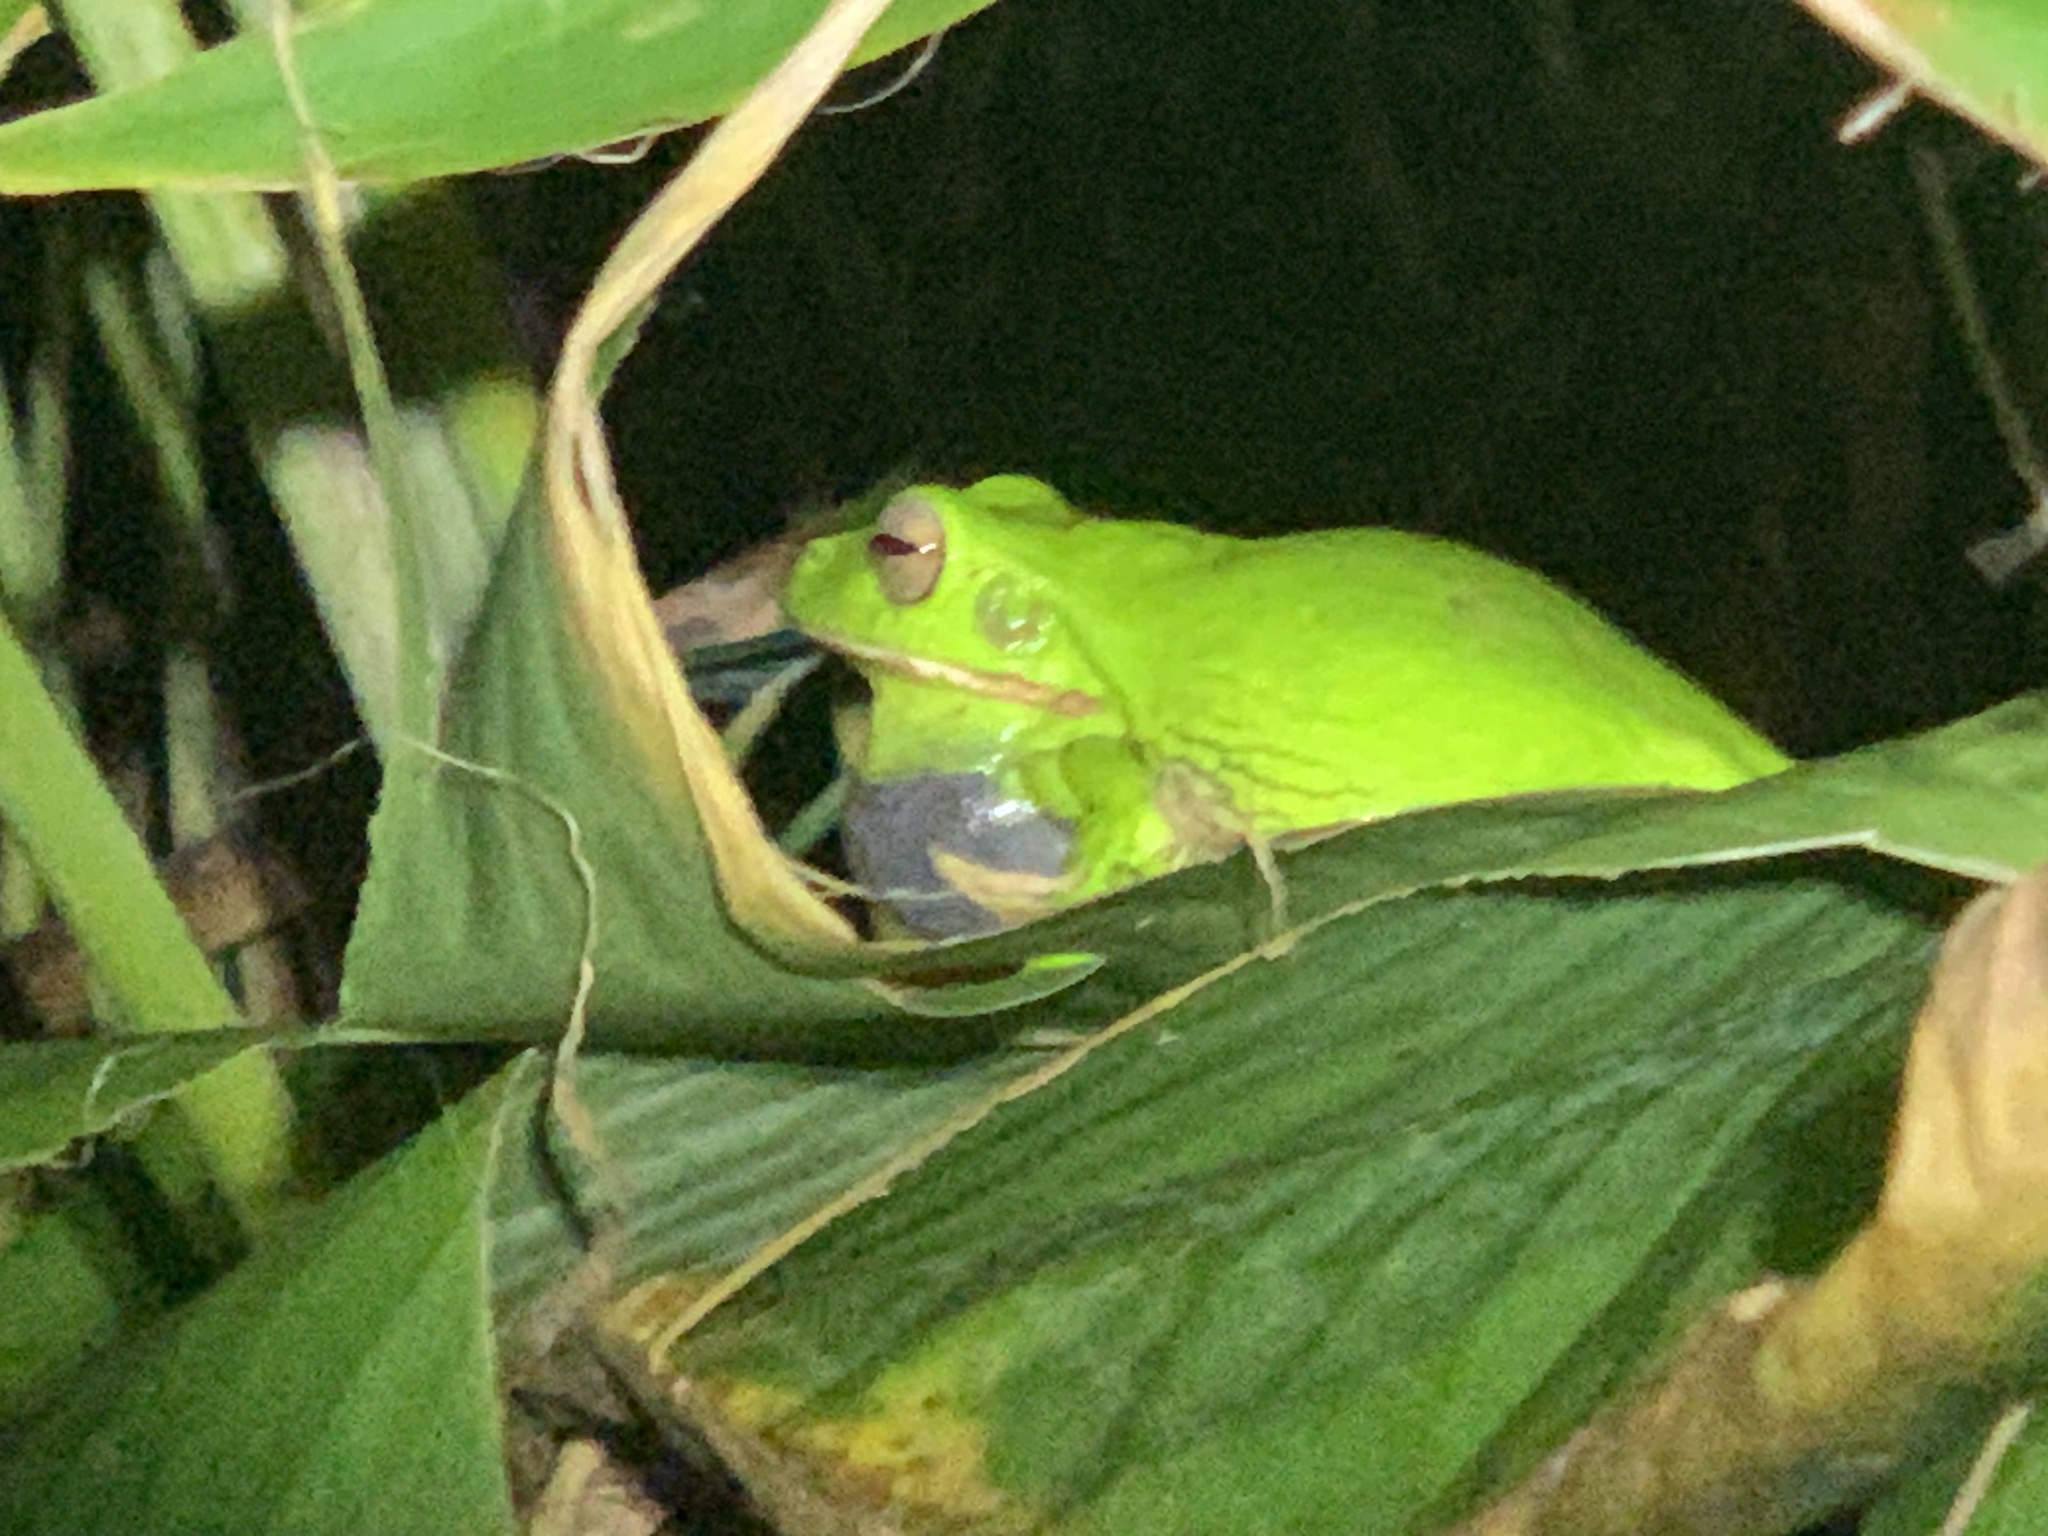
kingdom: Animalia
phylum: Chordata
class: Amphibia
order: Anura
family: Pelodryadidae
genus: Nyctimystes
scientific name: Nyctimystes infrafrenatus
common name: Australian giant treefrog
